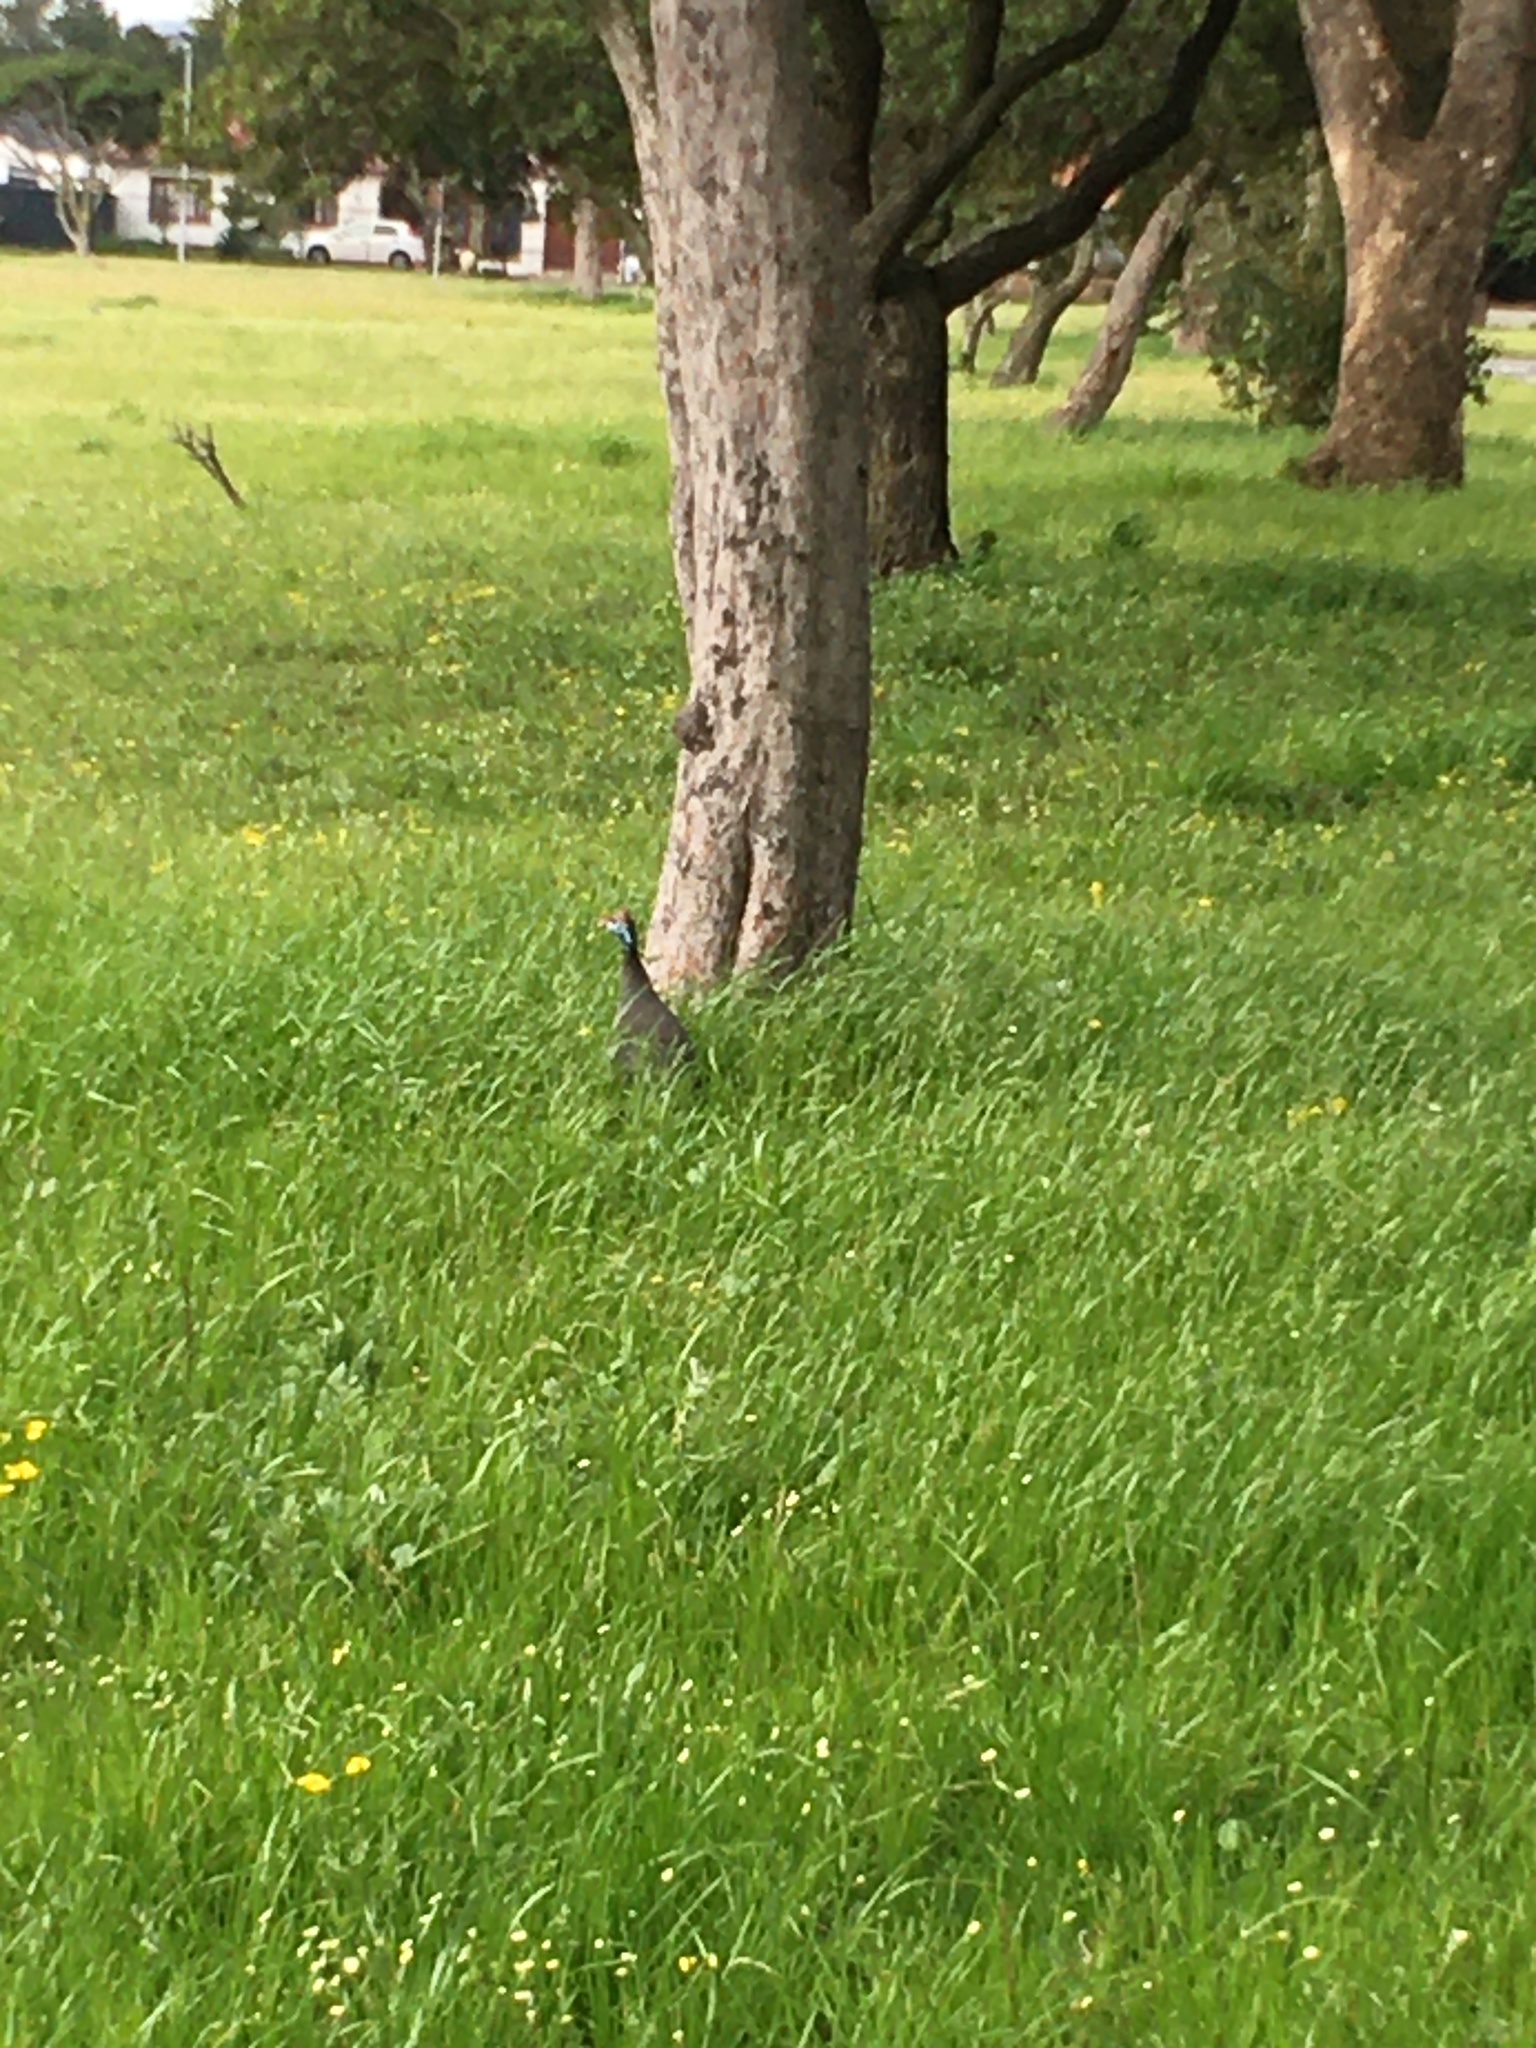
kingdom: Animalia
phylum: Chordata
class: Aves
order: Galliformes
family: Numididae
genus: Numida
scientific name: Numida meleagris
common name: Helmeted guineafowl
